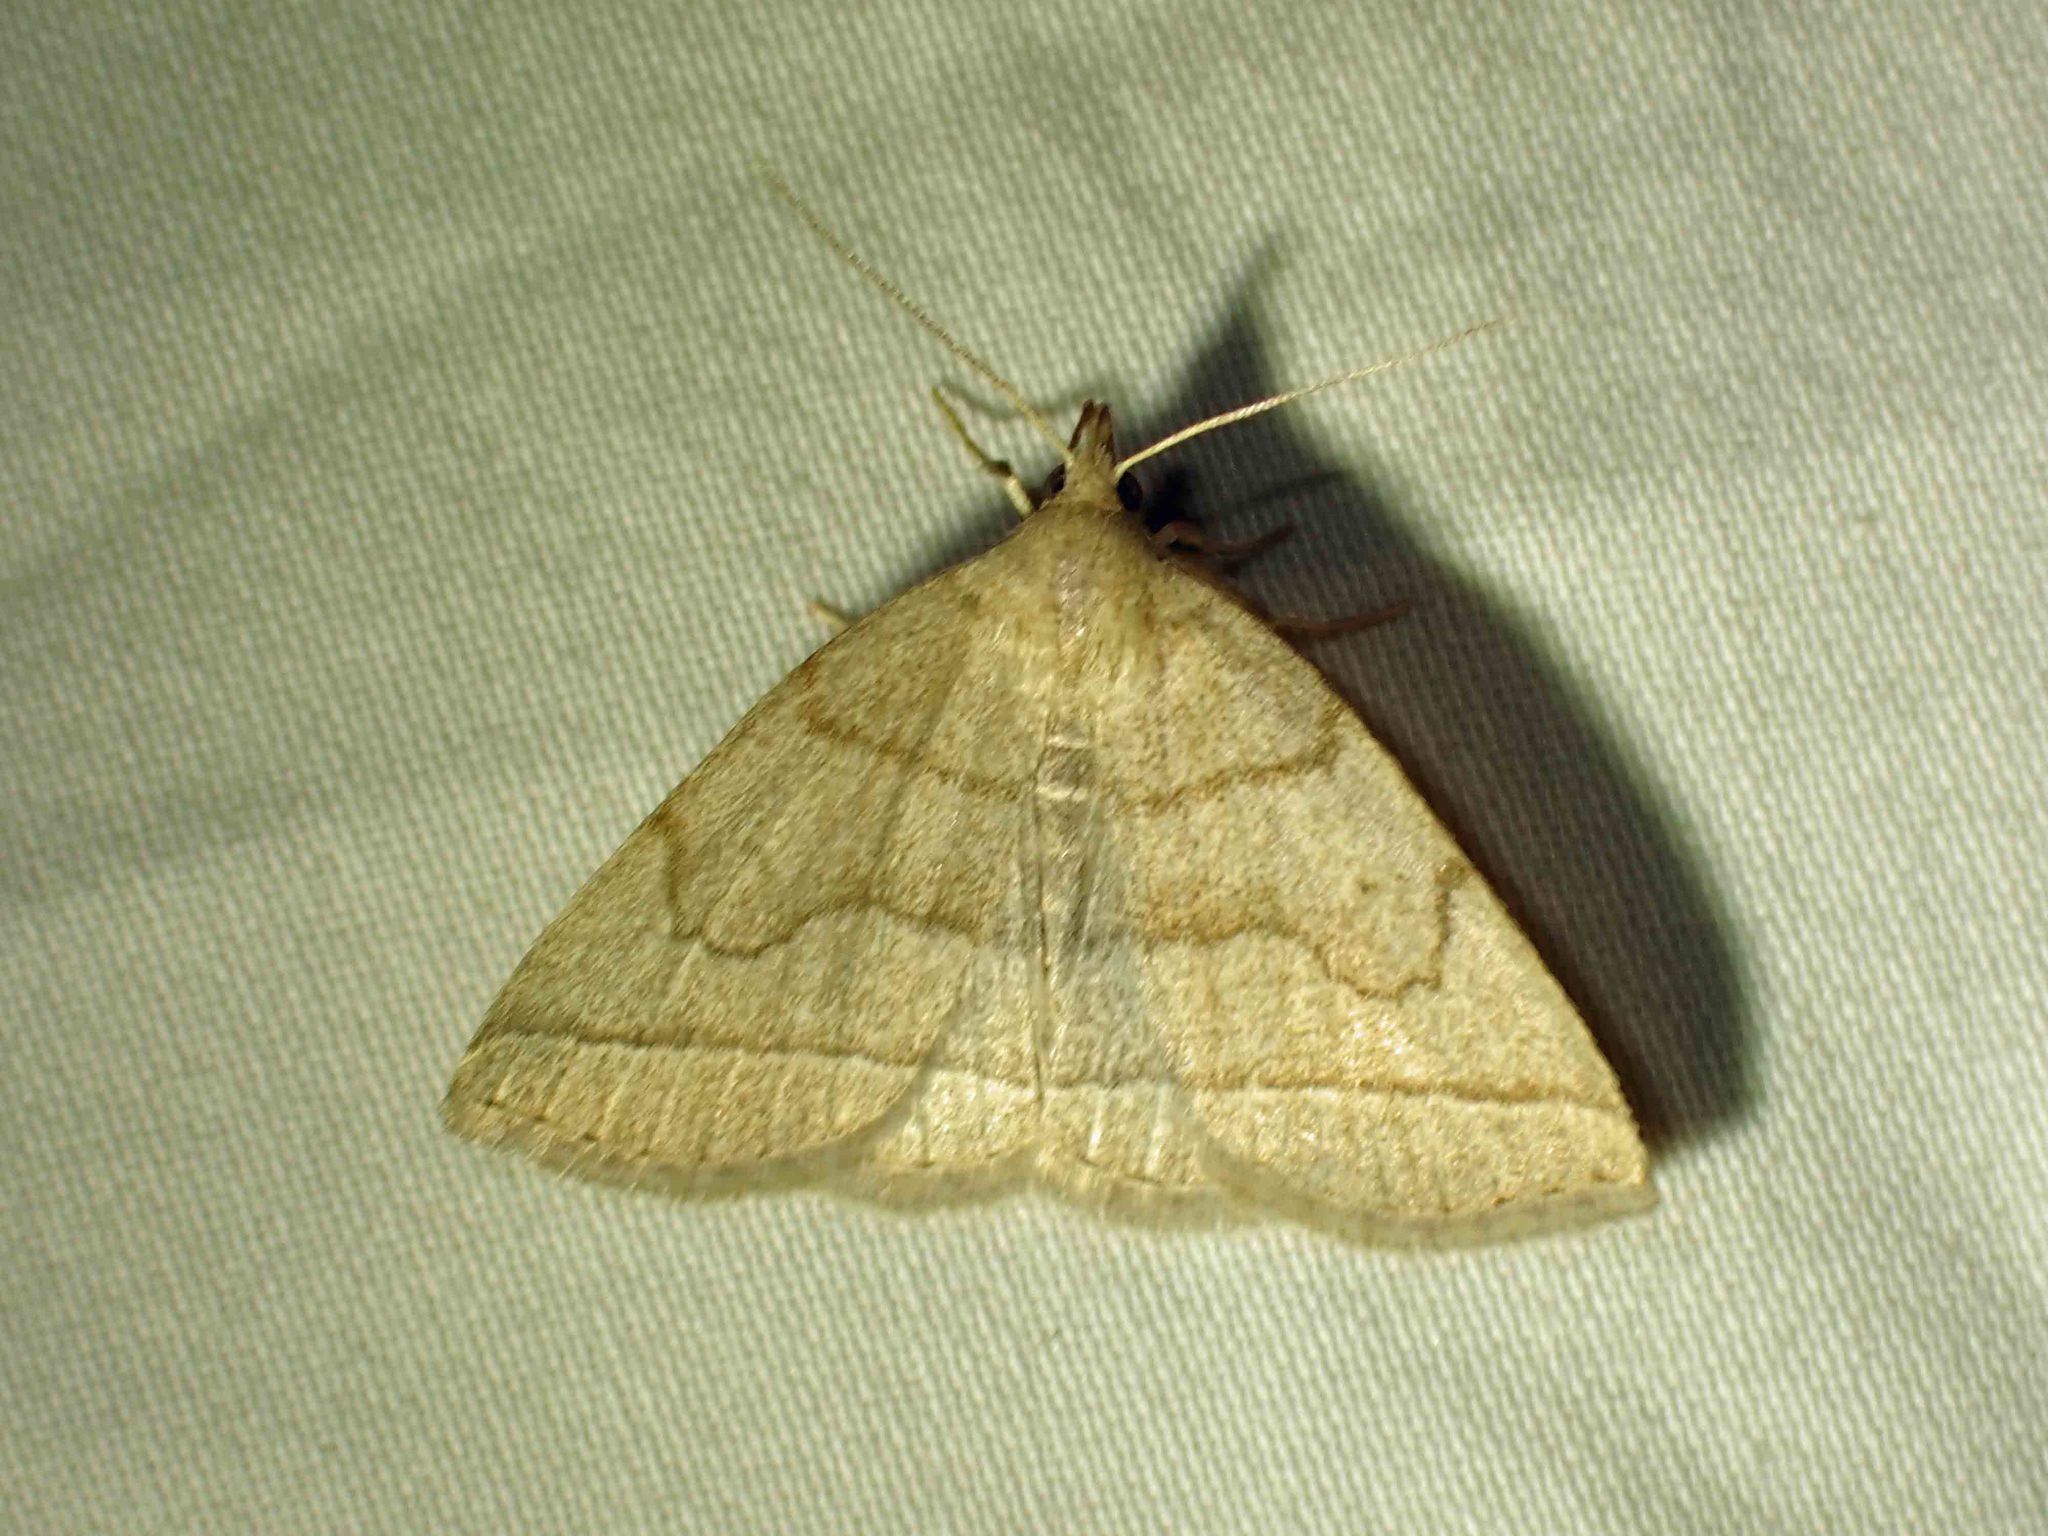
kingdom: Animalia
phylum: Arthropoda
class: Insecta
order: Lepidoptera
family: Erebidae
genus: Zanclognatha
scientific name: Zanclognatha cruralis
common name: Early fan-foot
